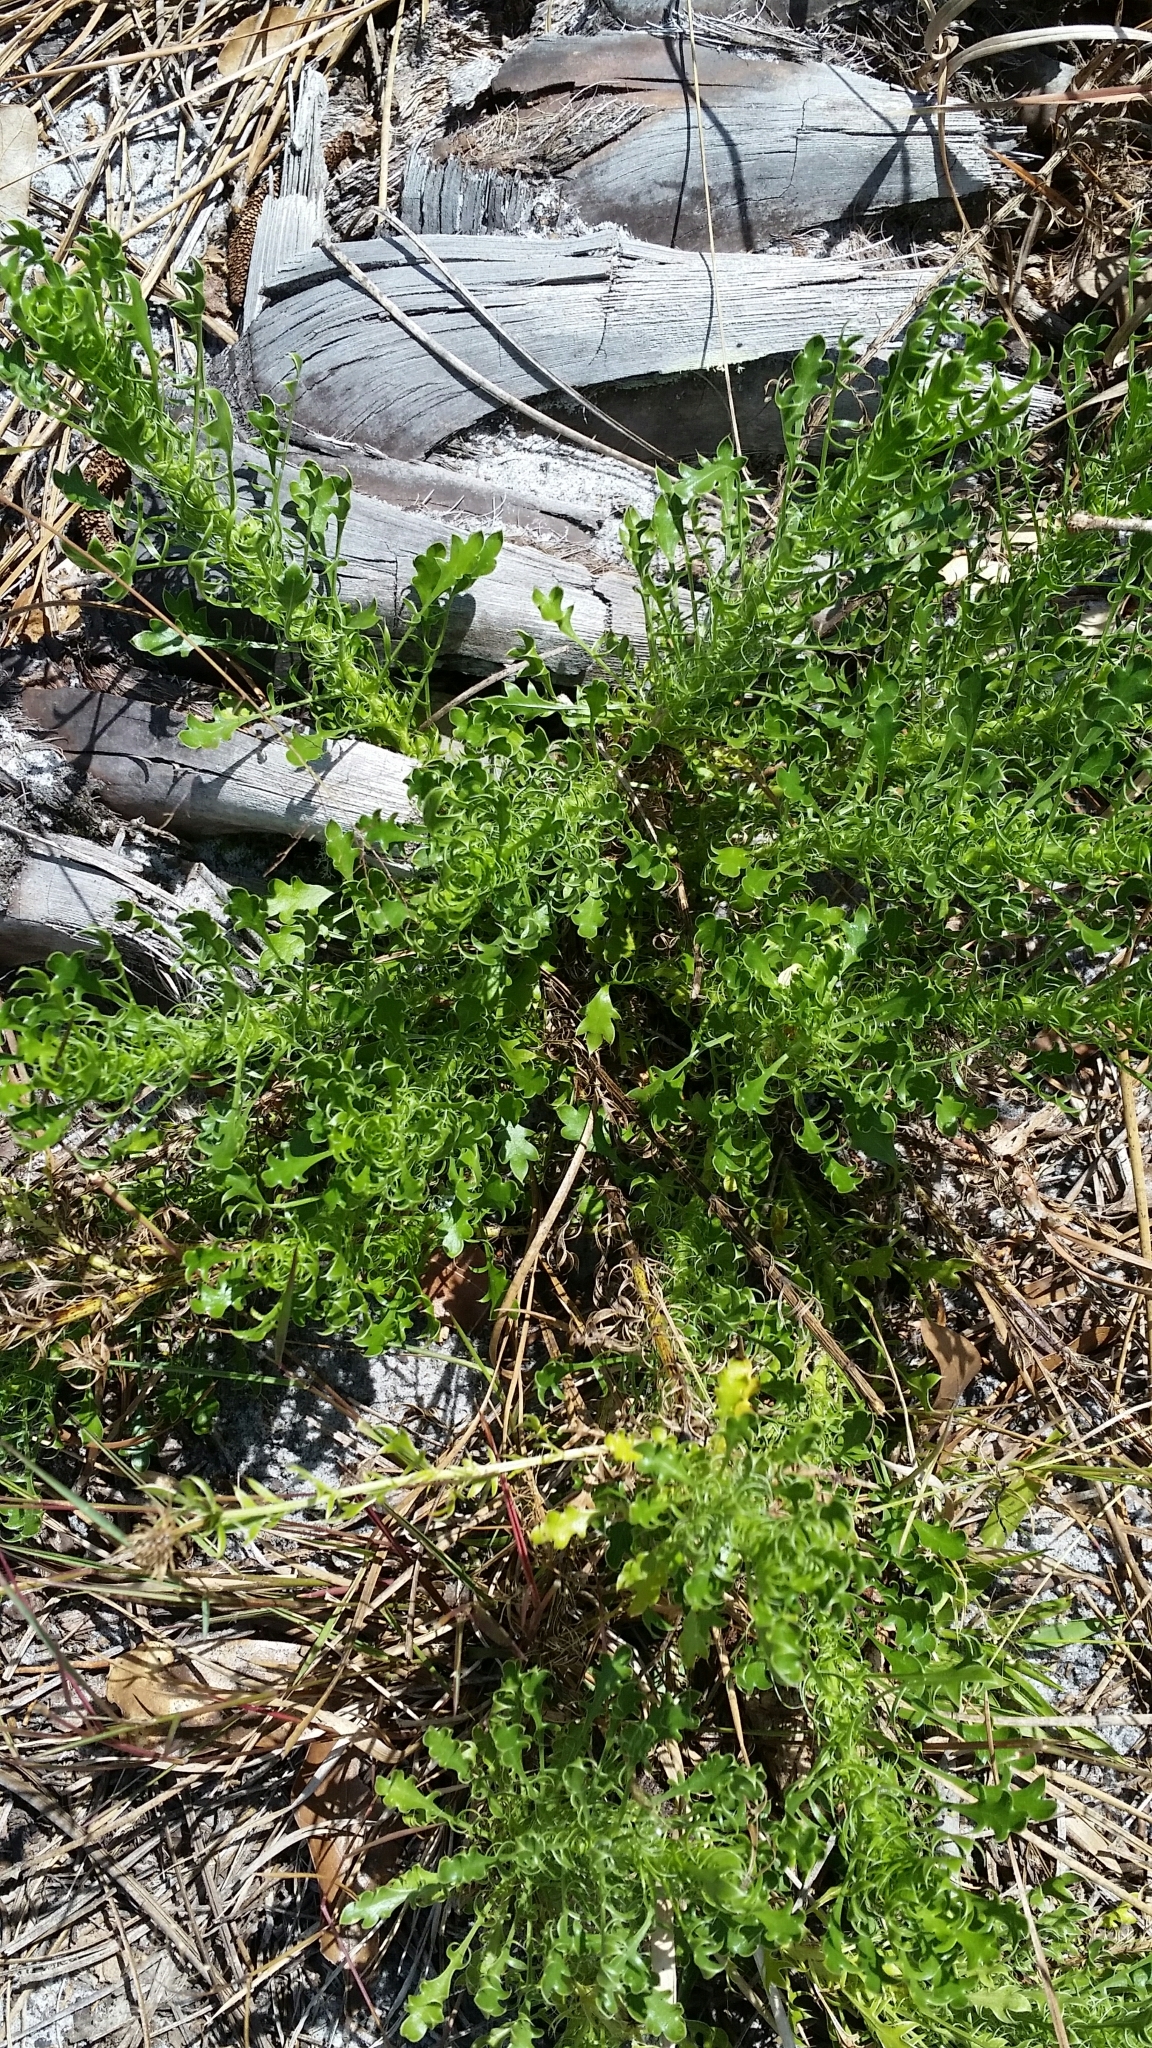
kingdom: Plantae
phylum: Tracheophyta
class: Magnoliopsida
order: Apiales
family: Apiaceae
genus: Eryngium
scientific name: Eryngium aromaticum
